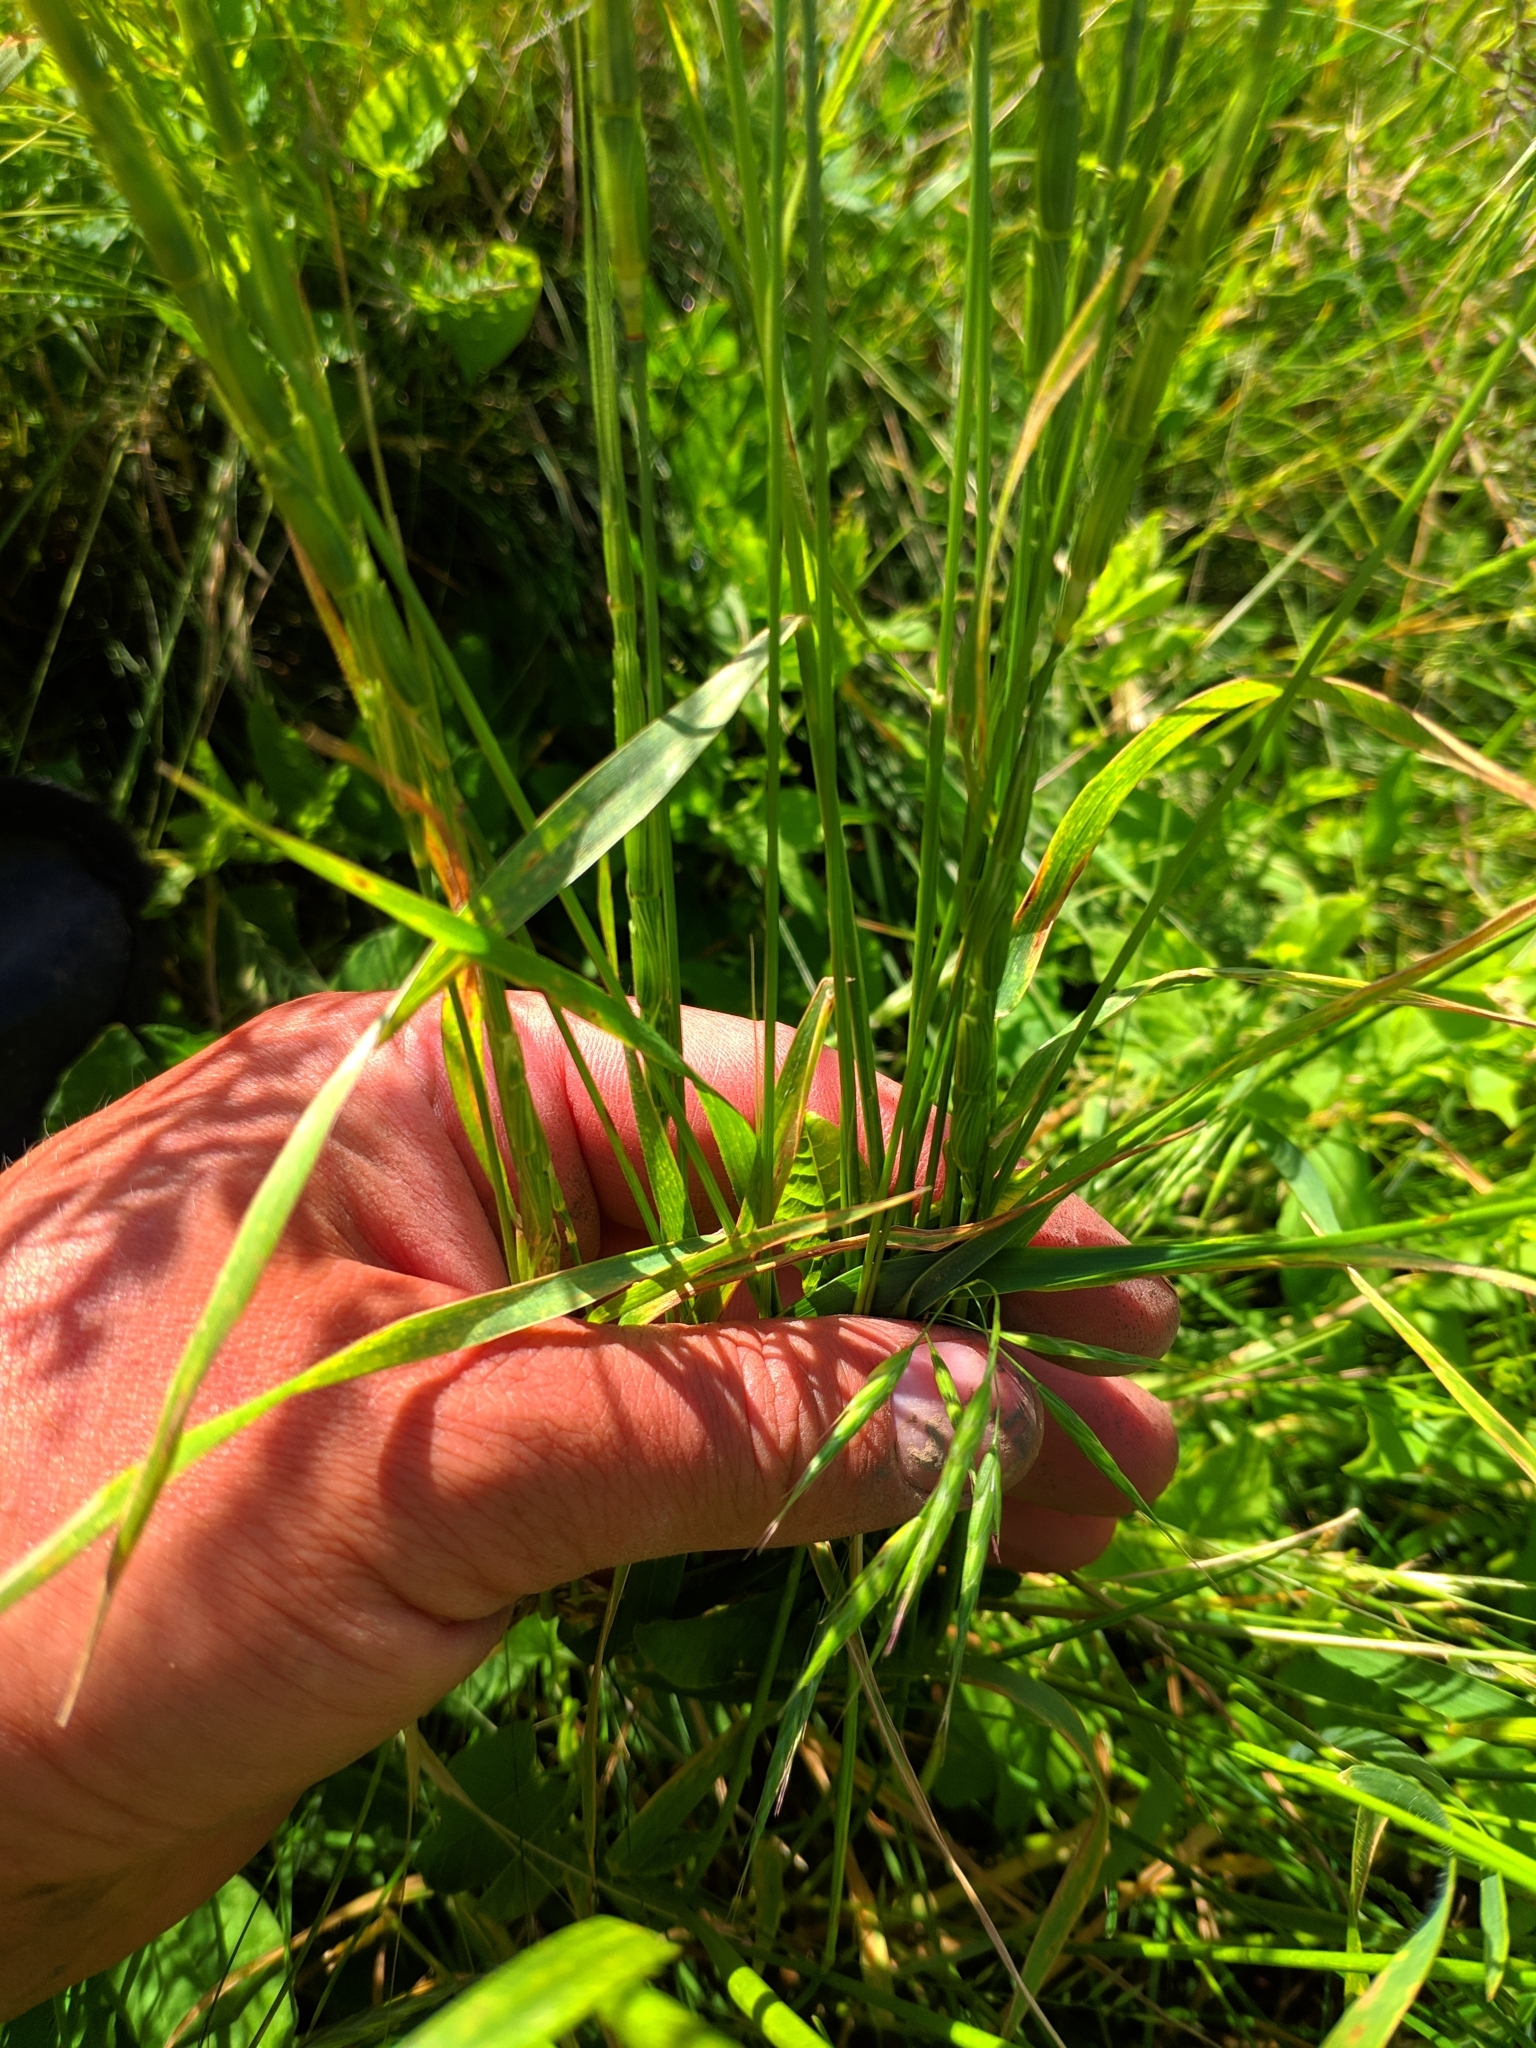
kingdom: Plantae
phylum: Tracheophyta
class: Liliopsida
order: Poales
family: Poaceae
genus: Aegilops
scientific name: Aegilops cylindrica
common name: Jointed goatgrass
